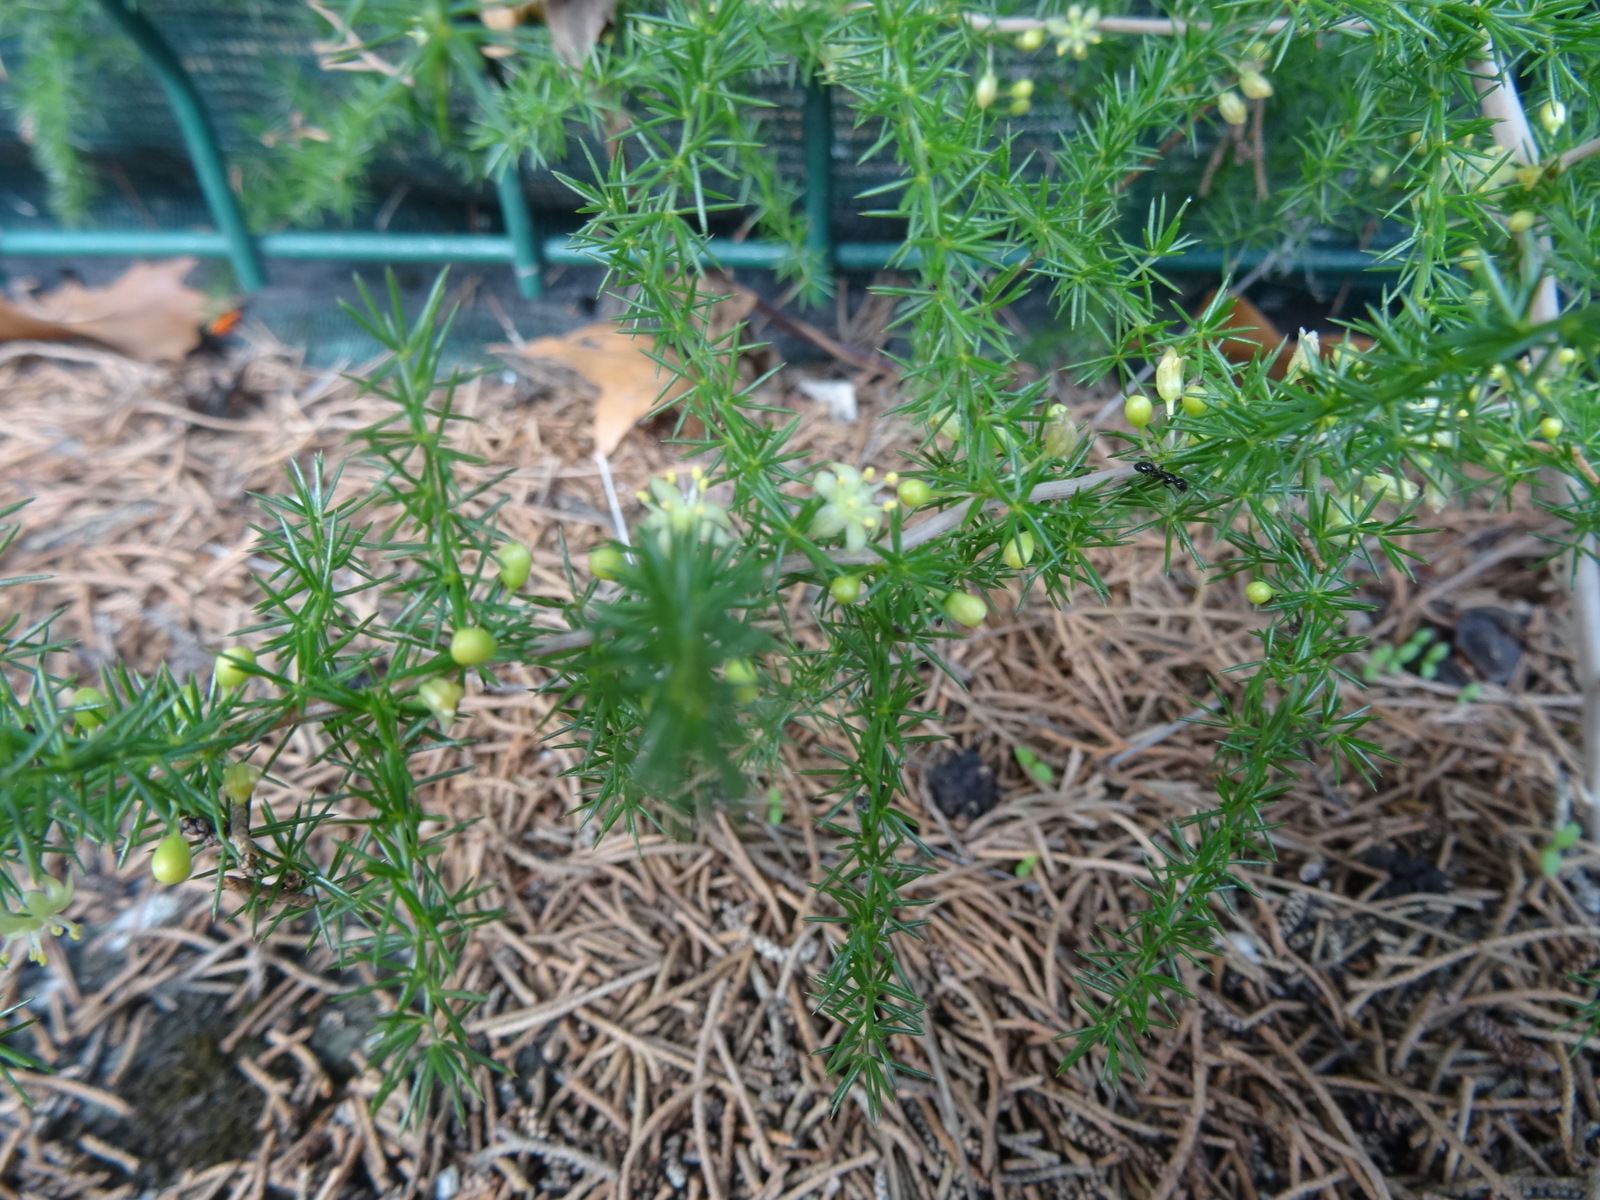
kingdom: Plantae
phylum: Tracheophyta
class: Liliopsida
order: Asparagales
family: Asparagaceae
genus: Asparagus
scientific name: Asparagus acutifolius
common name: Wild asparagus
